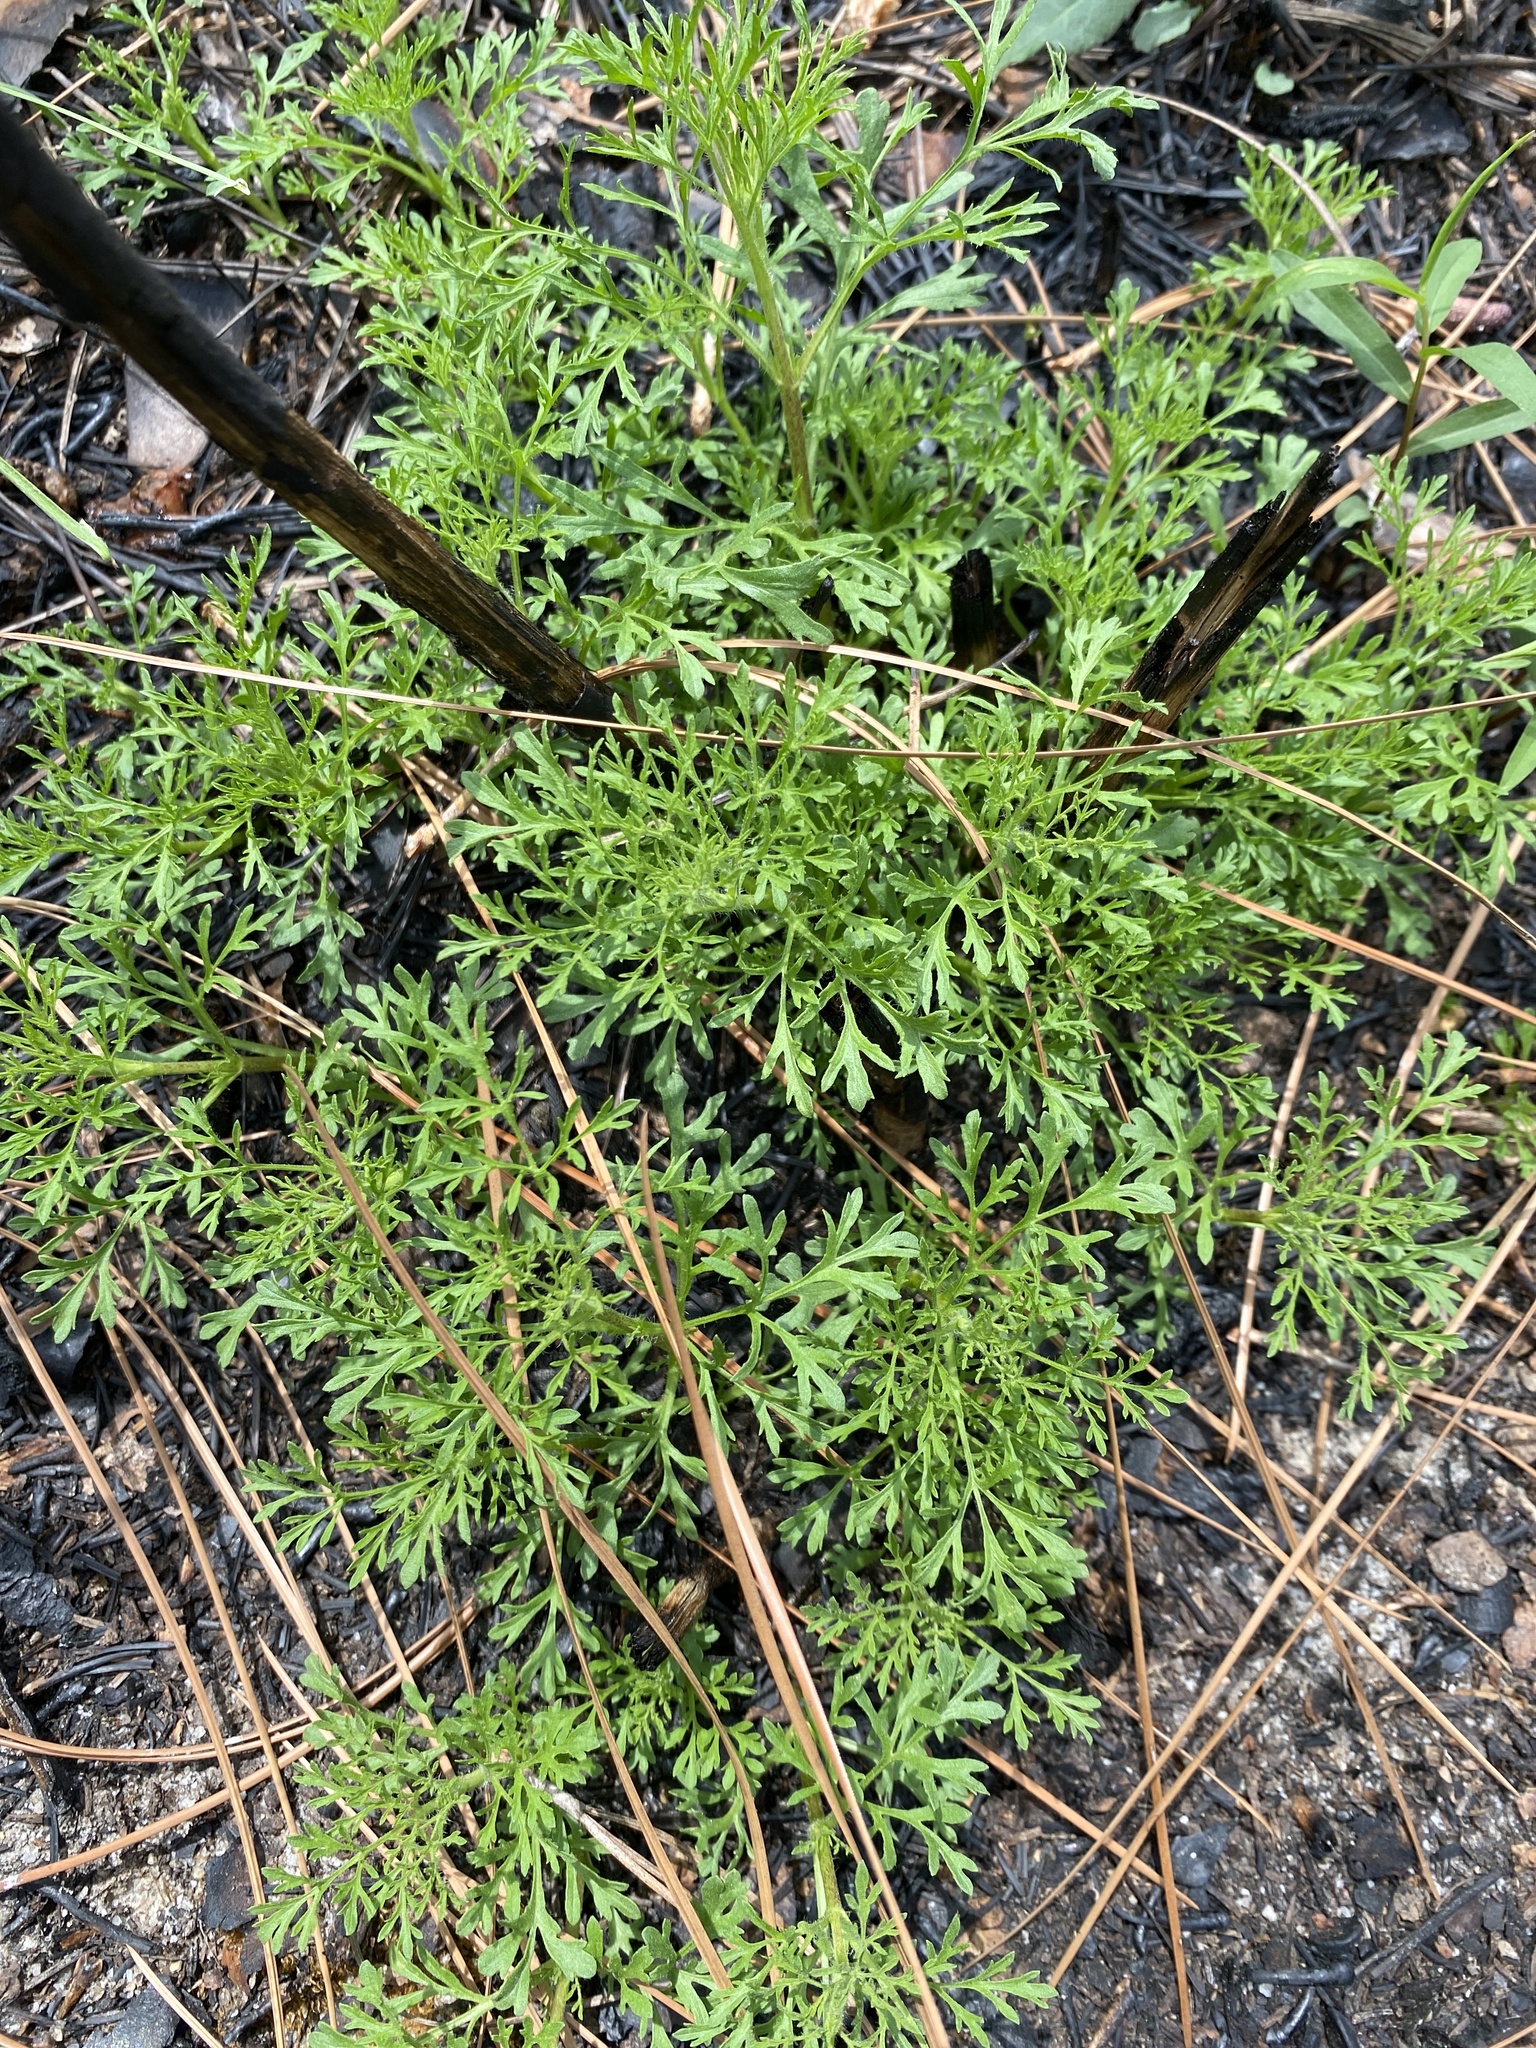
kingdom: Plantae
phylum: Tracheophyta
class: Magnoliopsida
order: Asterales
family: Asteraceae
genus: Eupatorium
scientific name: Eupatorium compositifolium
